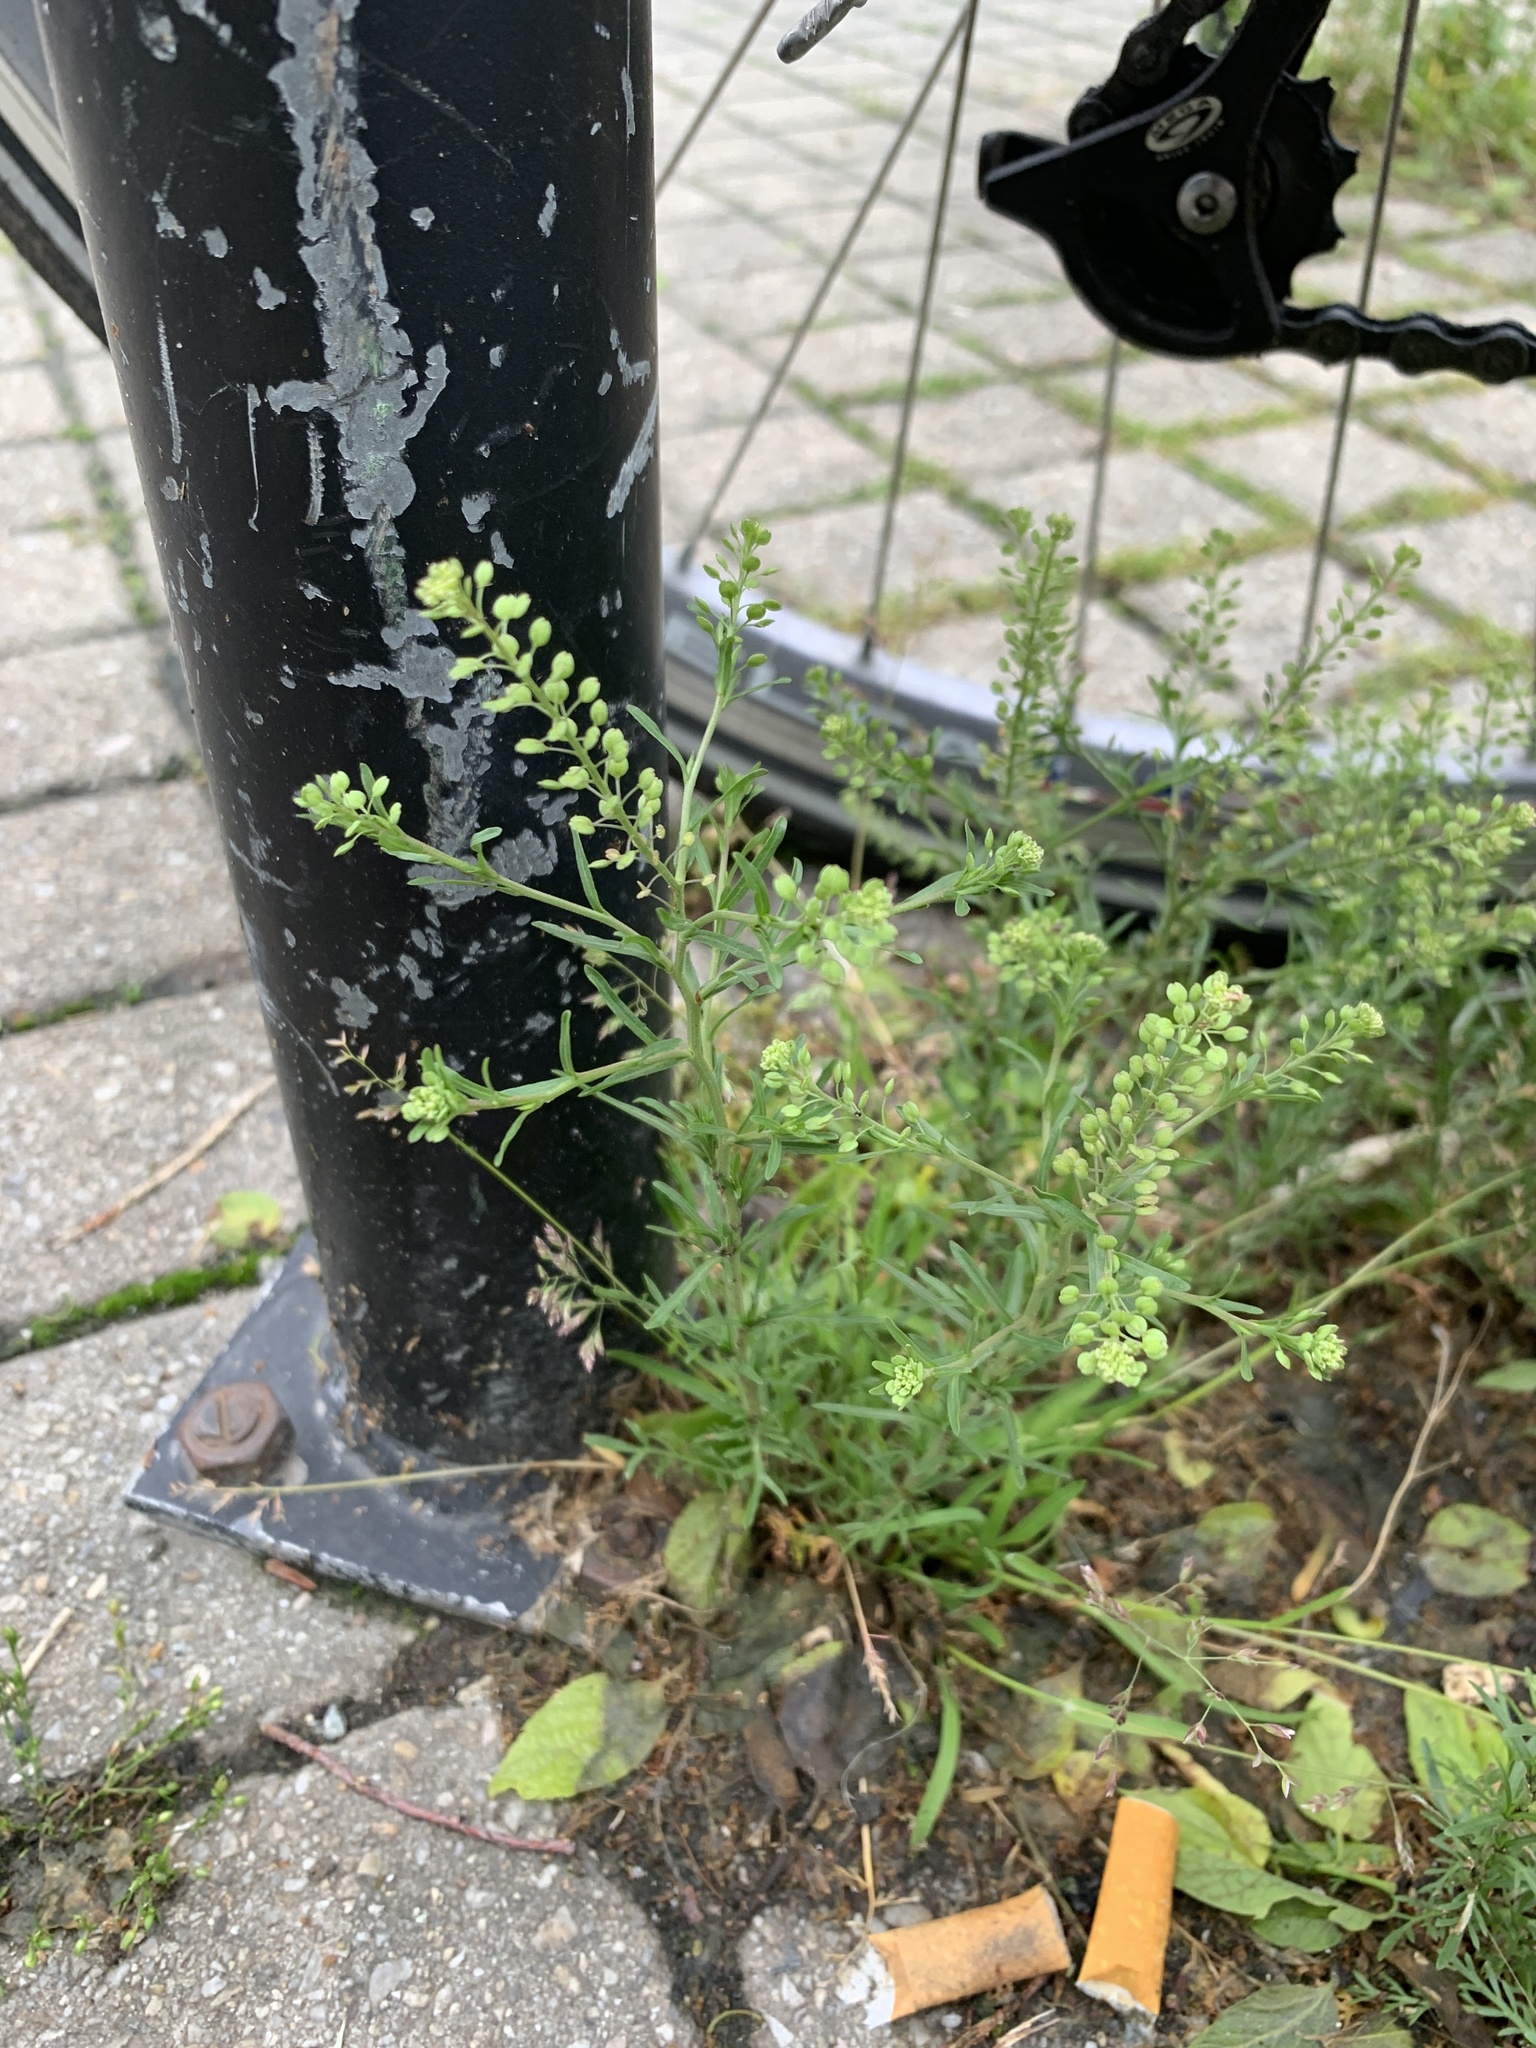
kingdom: Plantae
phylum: Tracheophyta
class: Magnoliopsida
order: Brassicales
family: Brassicaceae
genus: Lepidium
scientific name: Lepidium ruderale
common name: Narrow-leaved pepperwort
